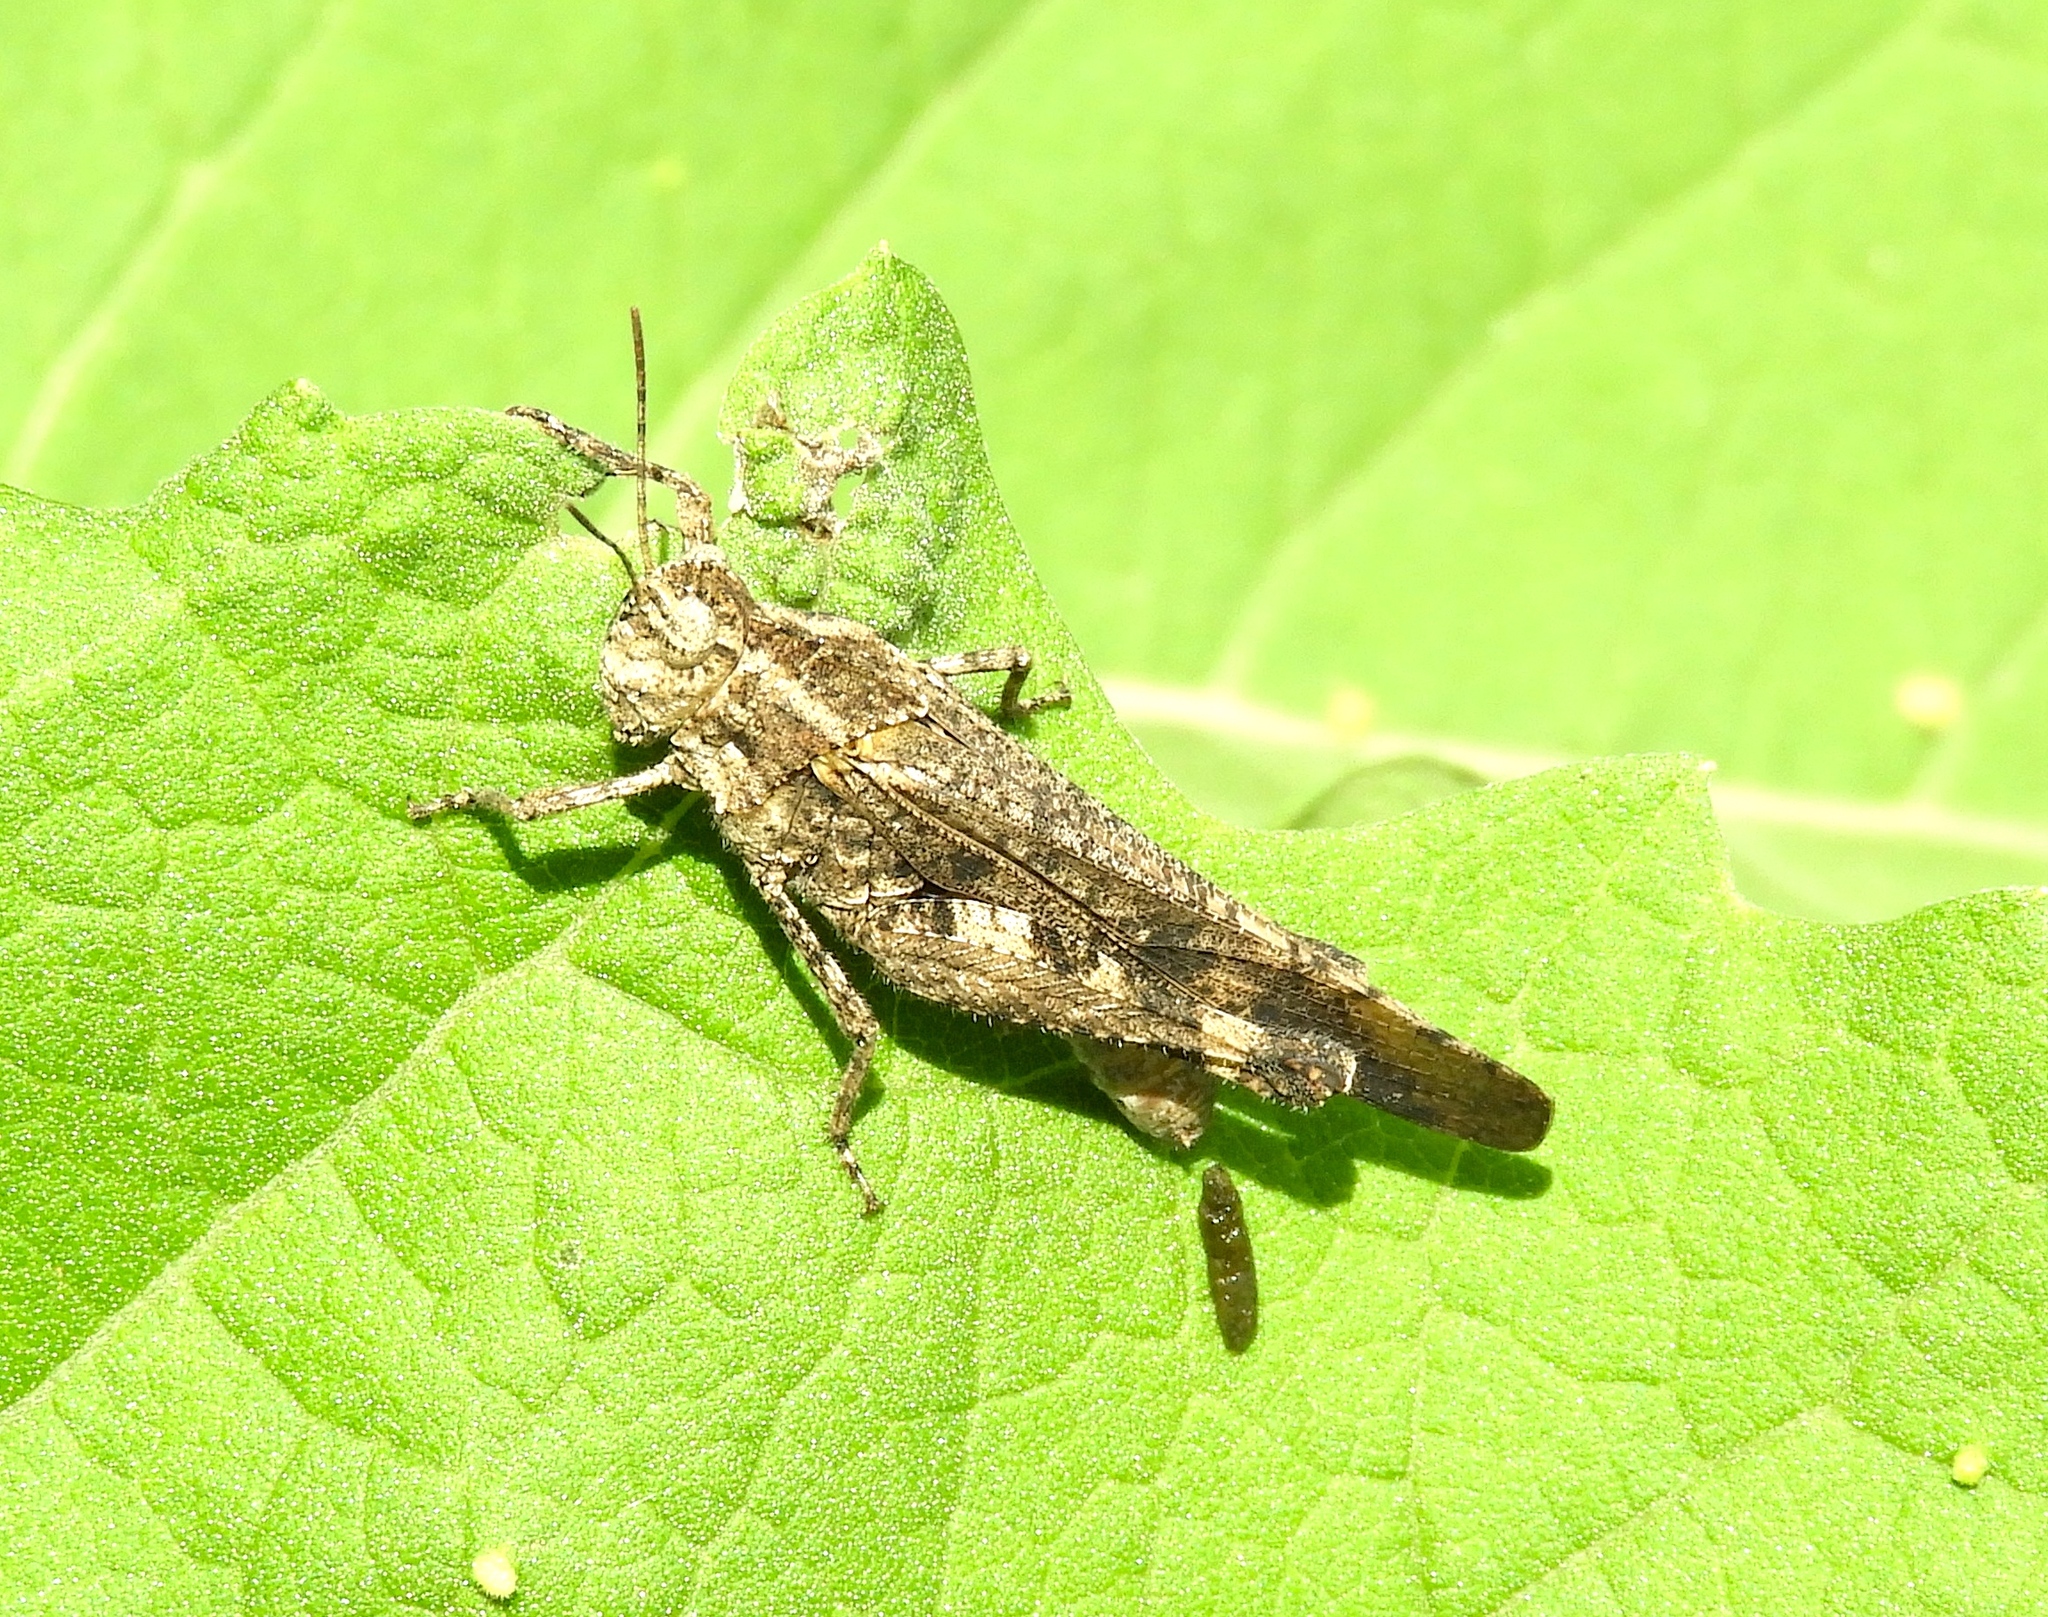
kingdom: Animalia
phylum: Arthropoda
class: Insecta
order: Orthoptera
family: Acrididae
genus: Lactista
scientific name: Lactista elota
